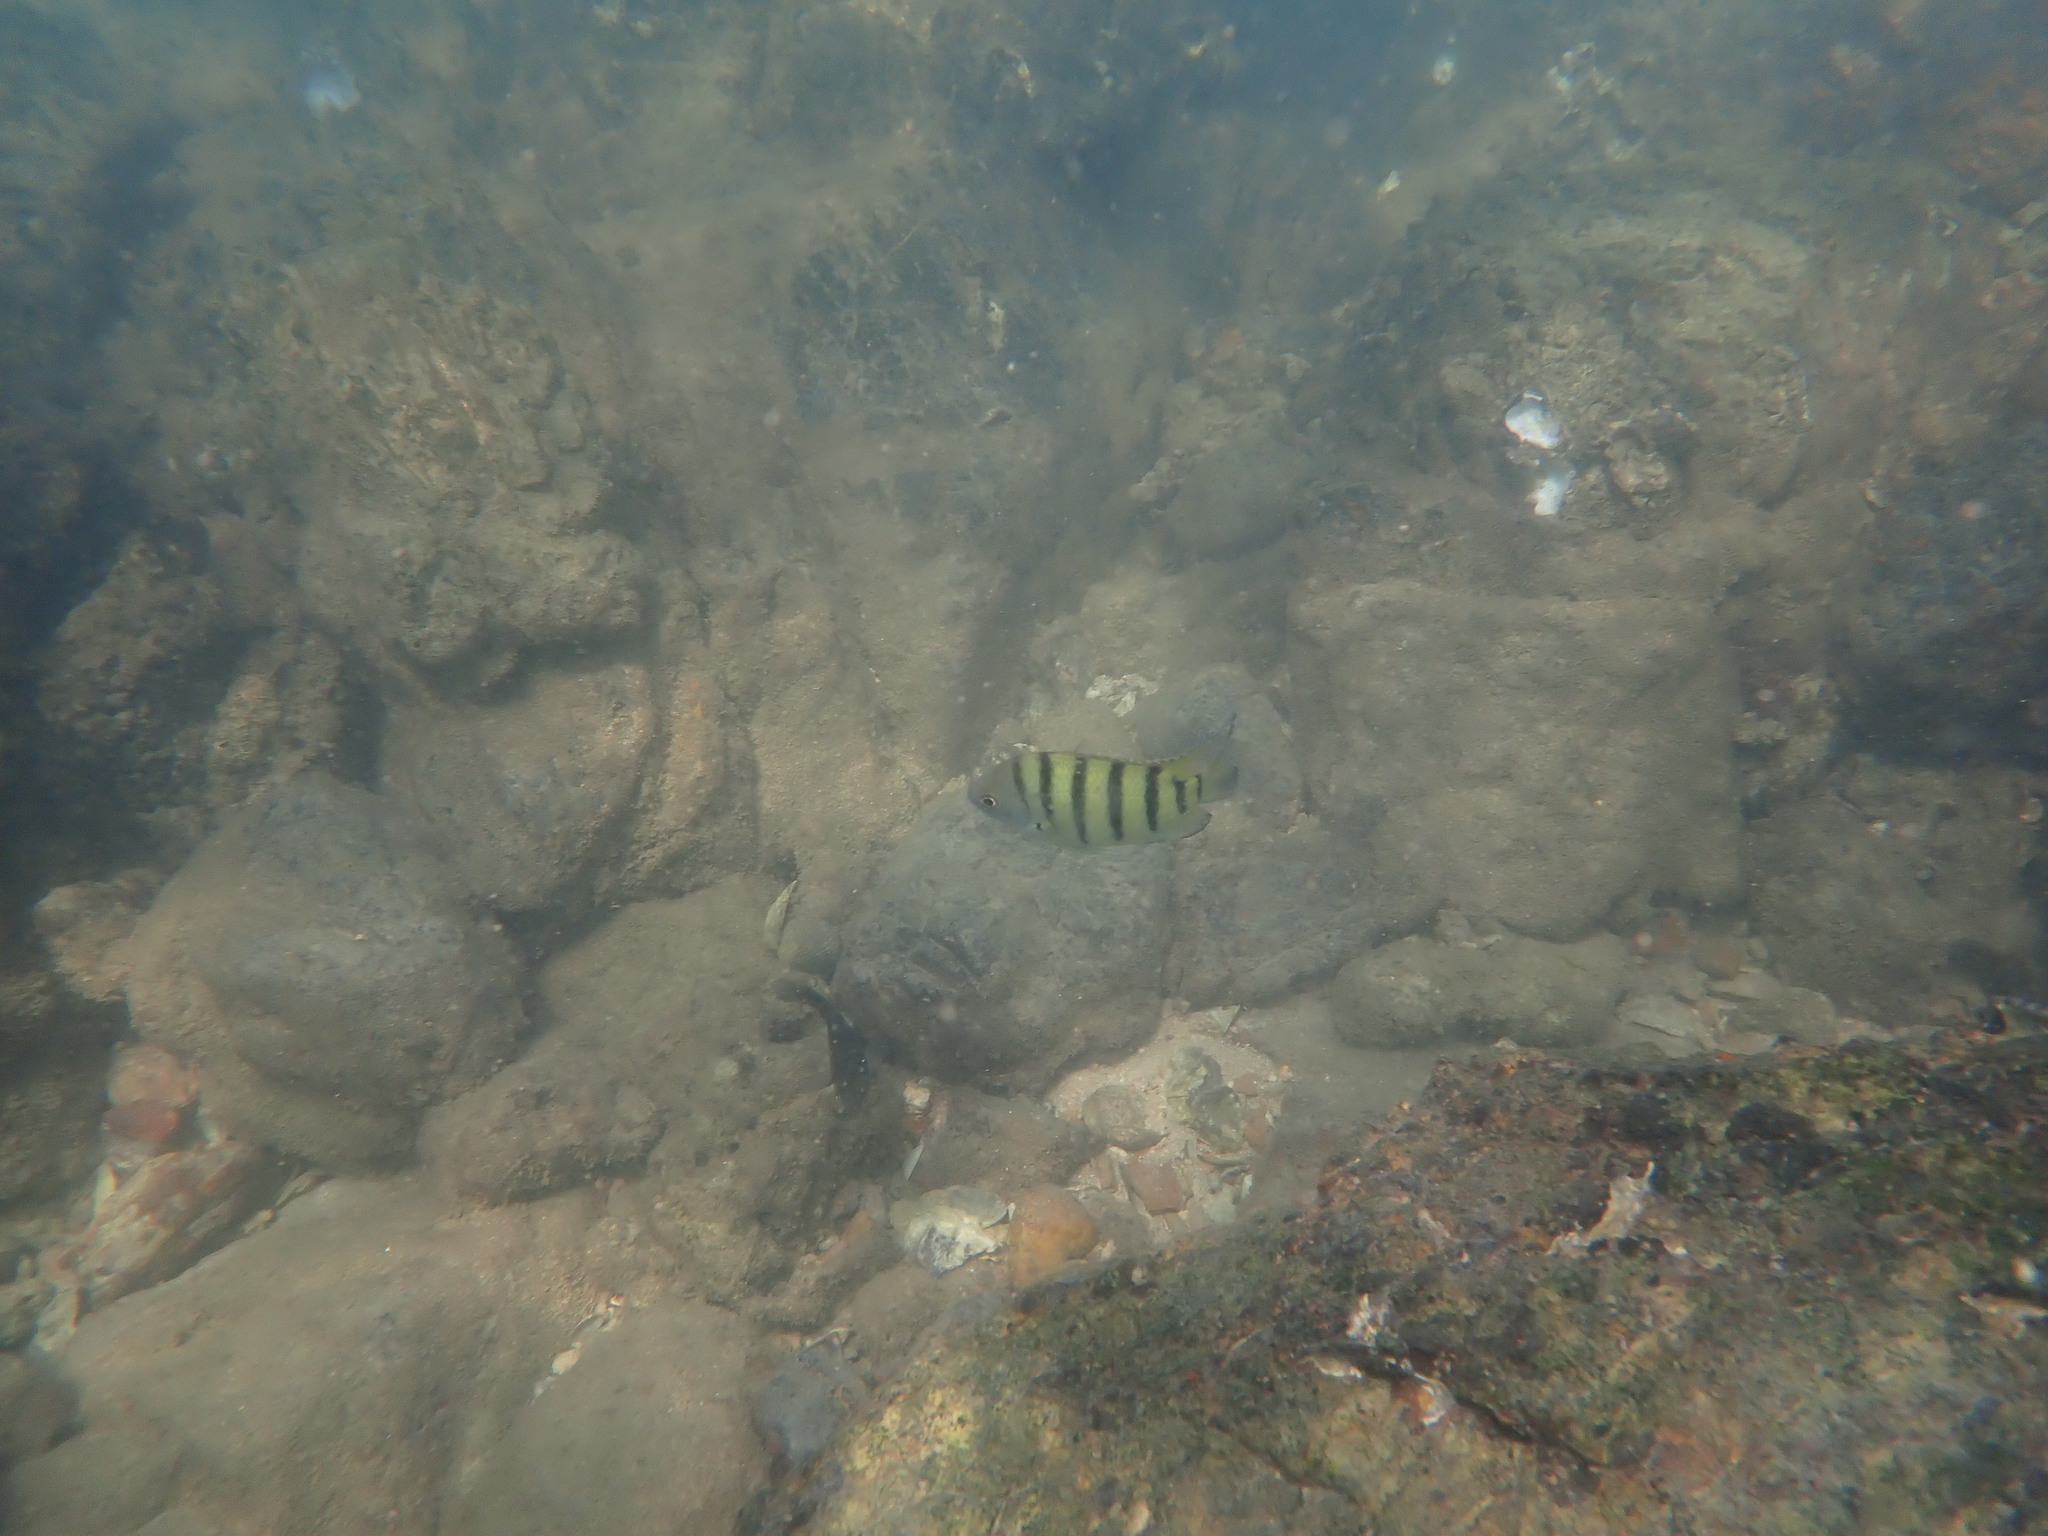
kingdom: Animalia
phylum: Chordata
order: Perciformes
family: Pomacentridae
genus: Abudefduf
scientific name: Abudefduf bengalensis
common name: Bengal sergeant
